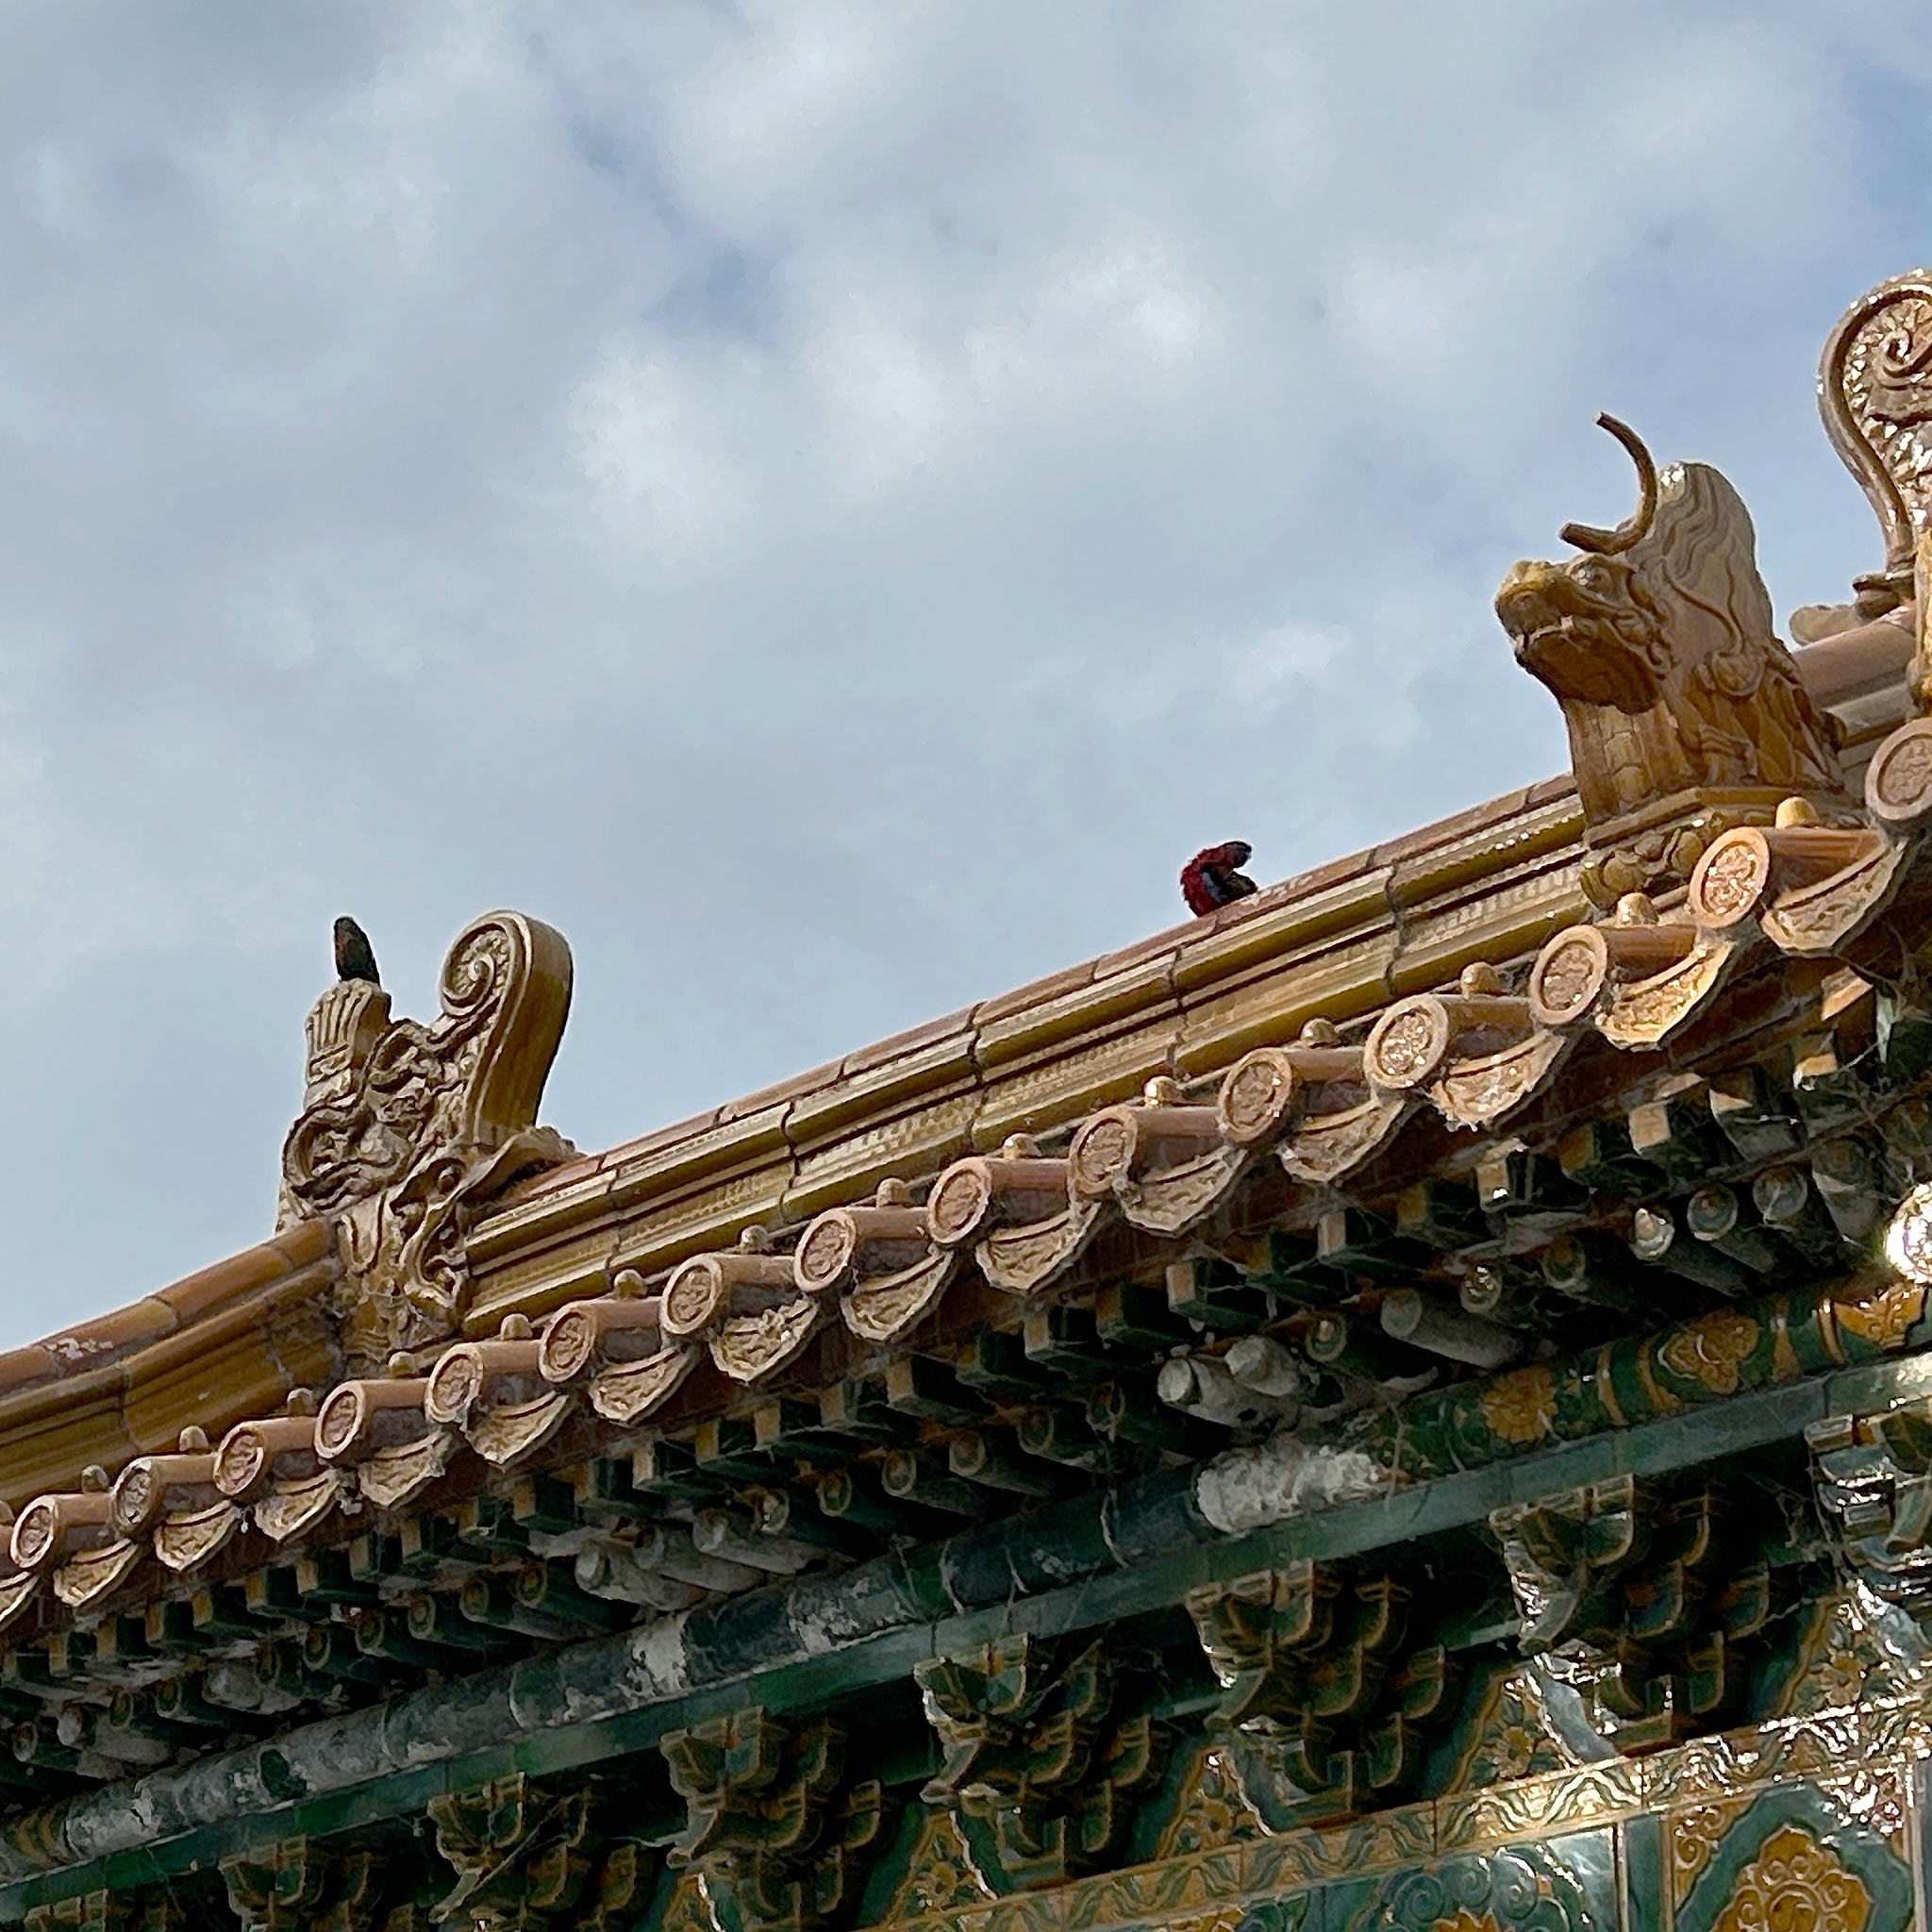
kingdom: Animalia
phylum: Chordata
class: Aves
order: Psittaciformes
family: Psittacidae
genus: Platycercus
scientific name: Platycercus elegans
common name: Crimson rosella
